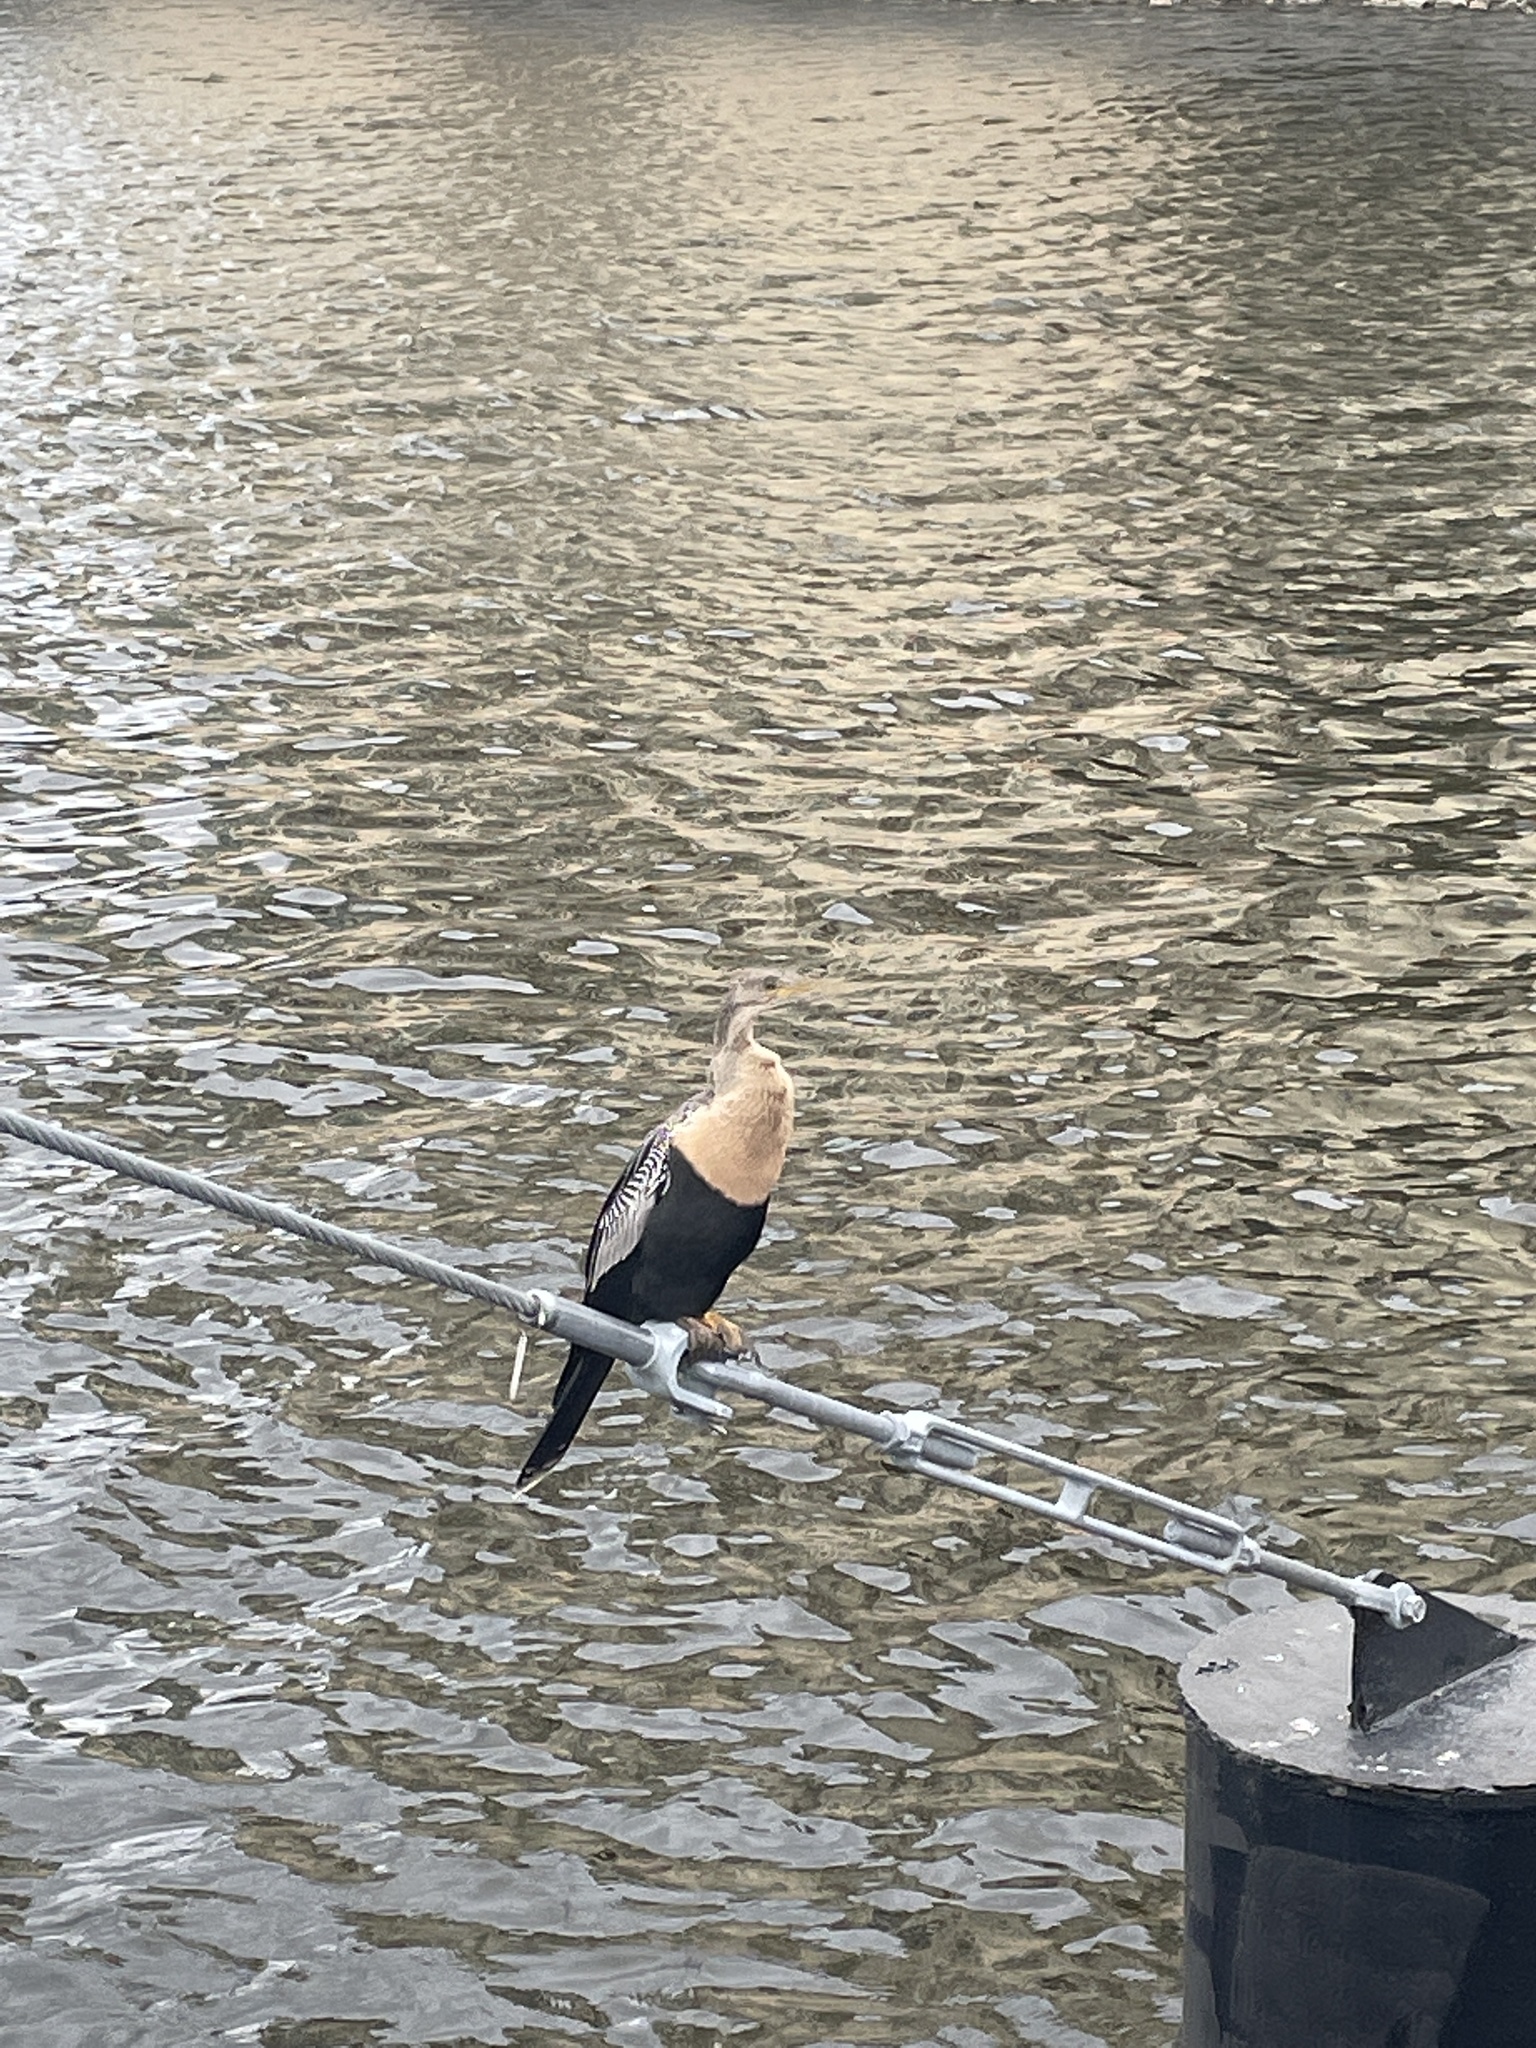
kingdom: Animalia
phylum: Chordata
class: Aves
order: Suliformes
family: Anhingidae
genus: Anhinga
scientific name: Anhinga anhinga
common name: Anhinga
